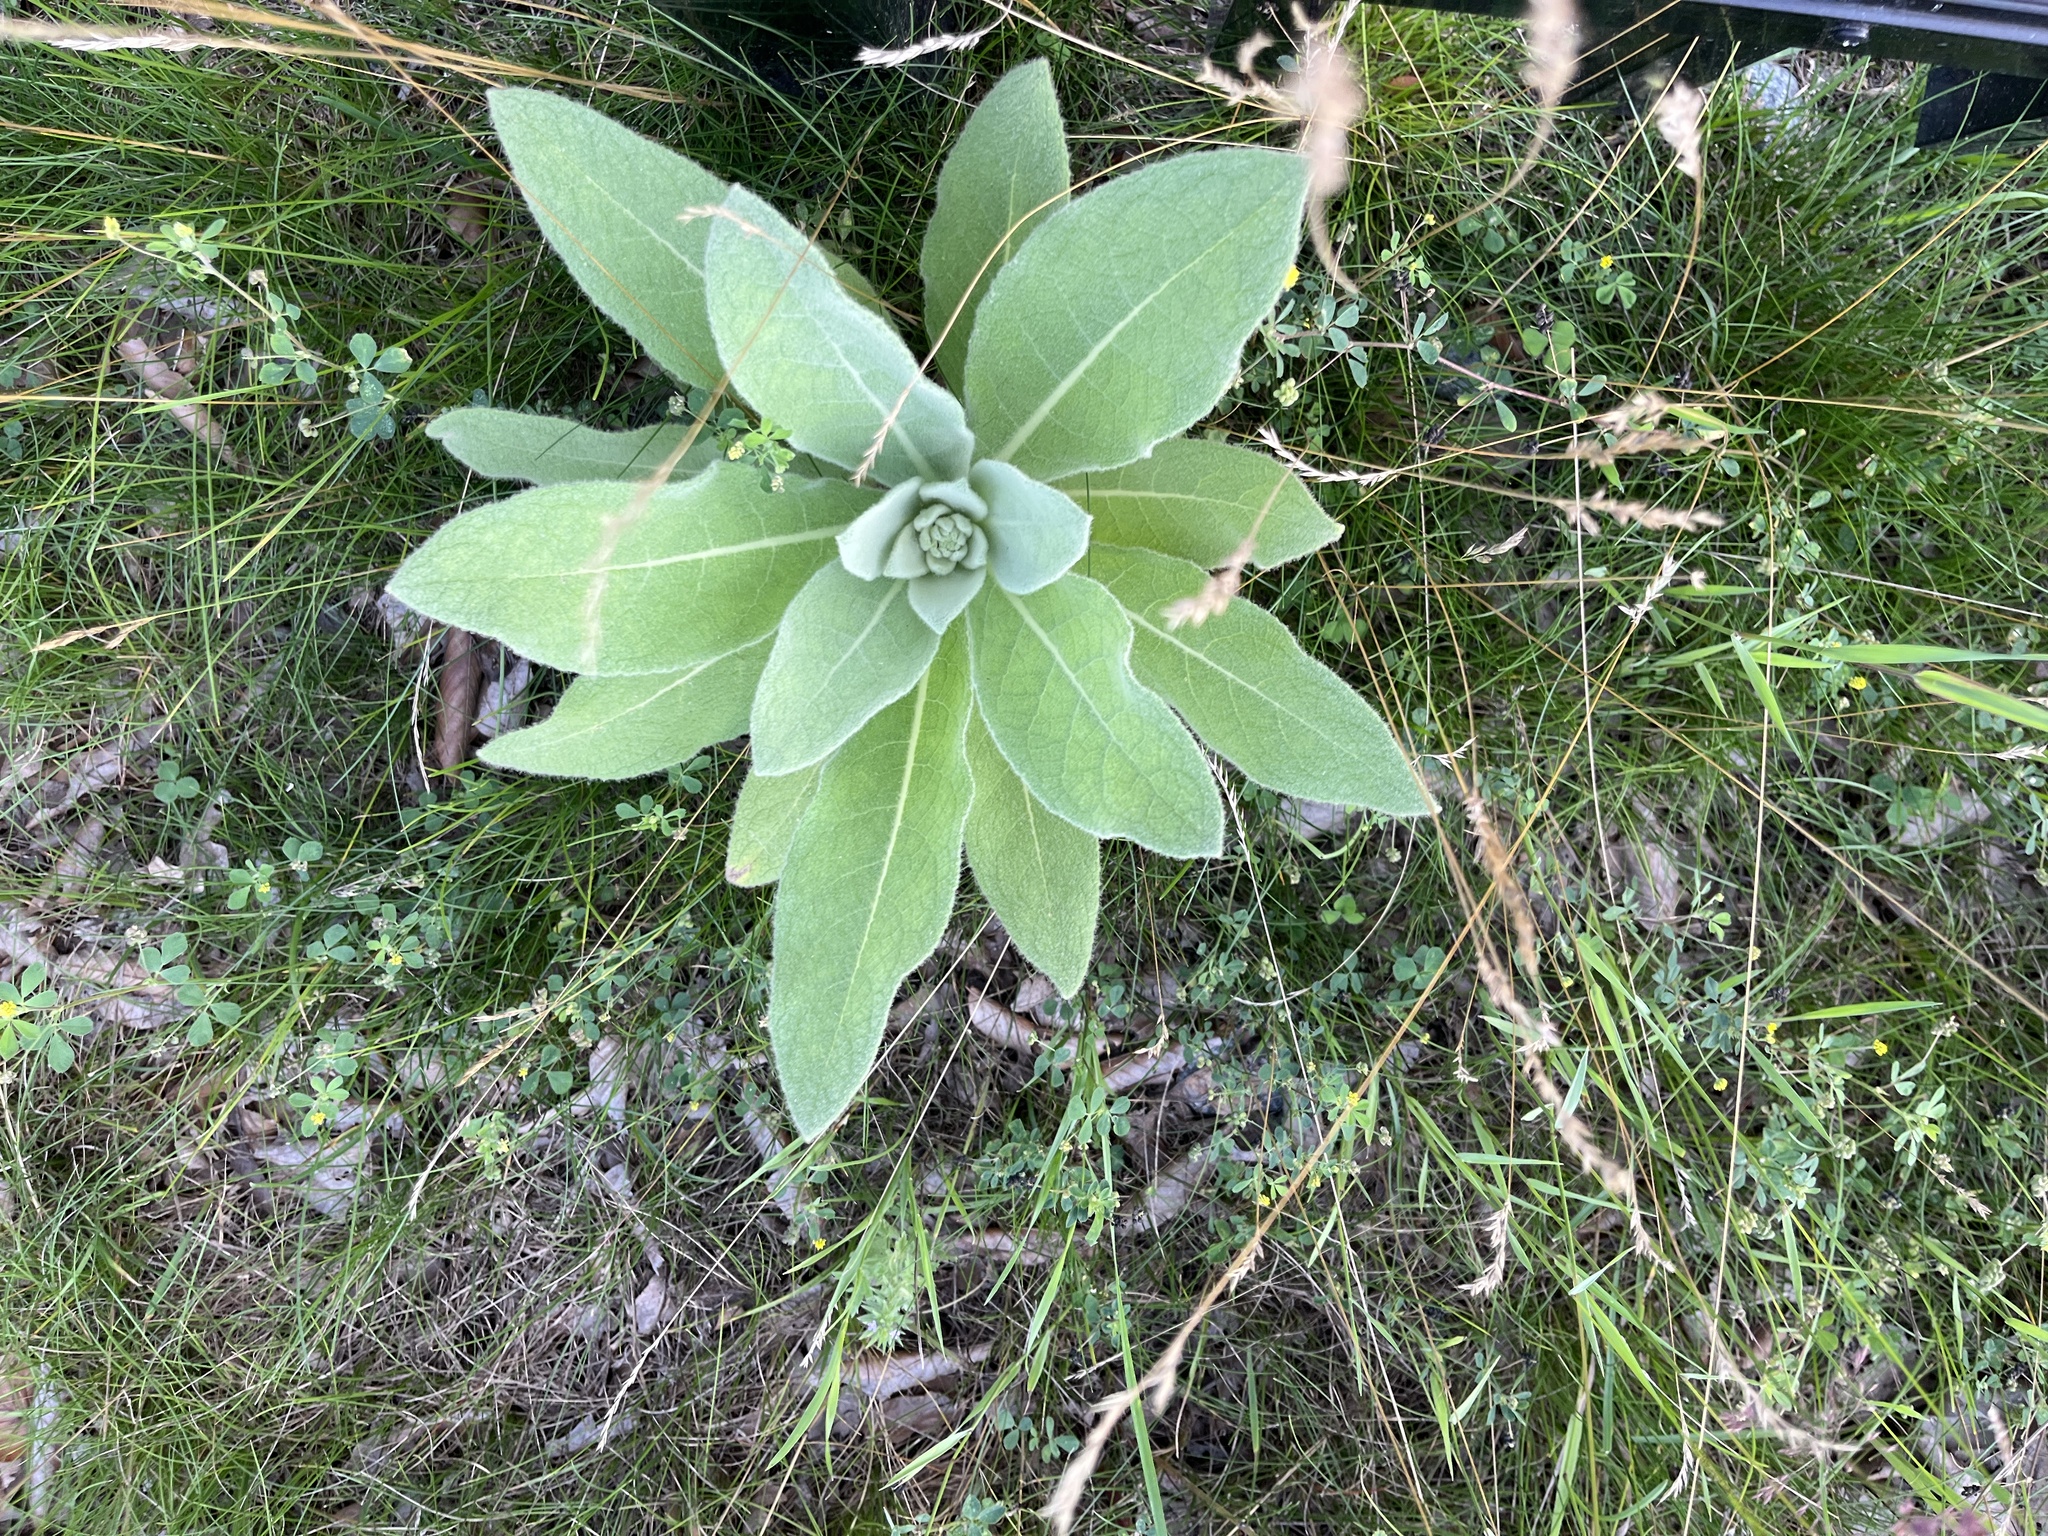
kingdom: Plantae
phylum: Tracheophyta
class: Magnoliopsida
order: Lamiales
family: Scrophulariaceae
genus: Verbascum
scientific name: Verbascum thapsus
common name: Common mullein
